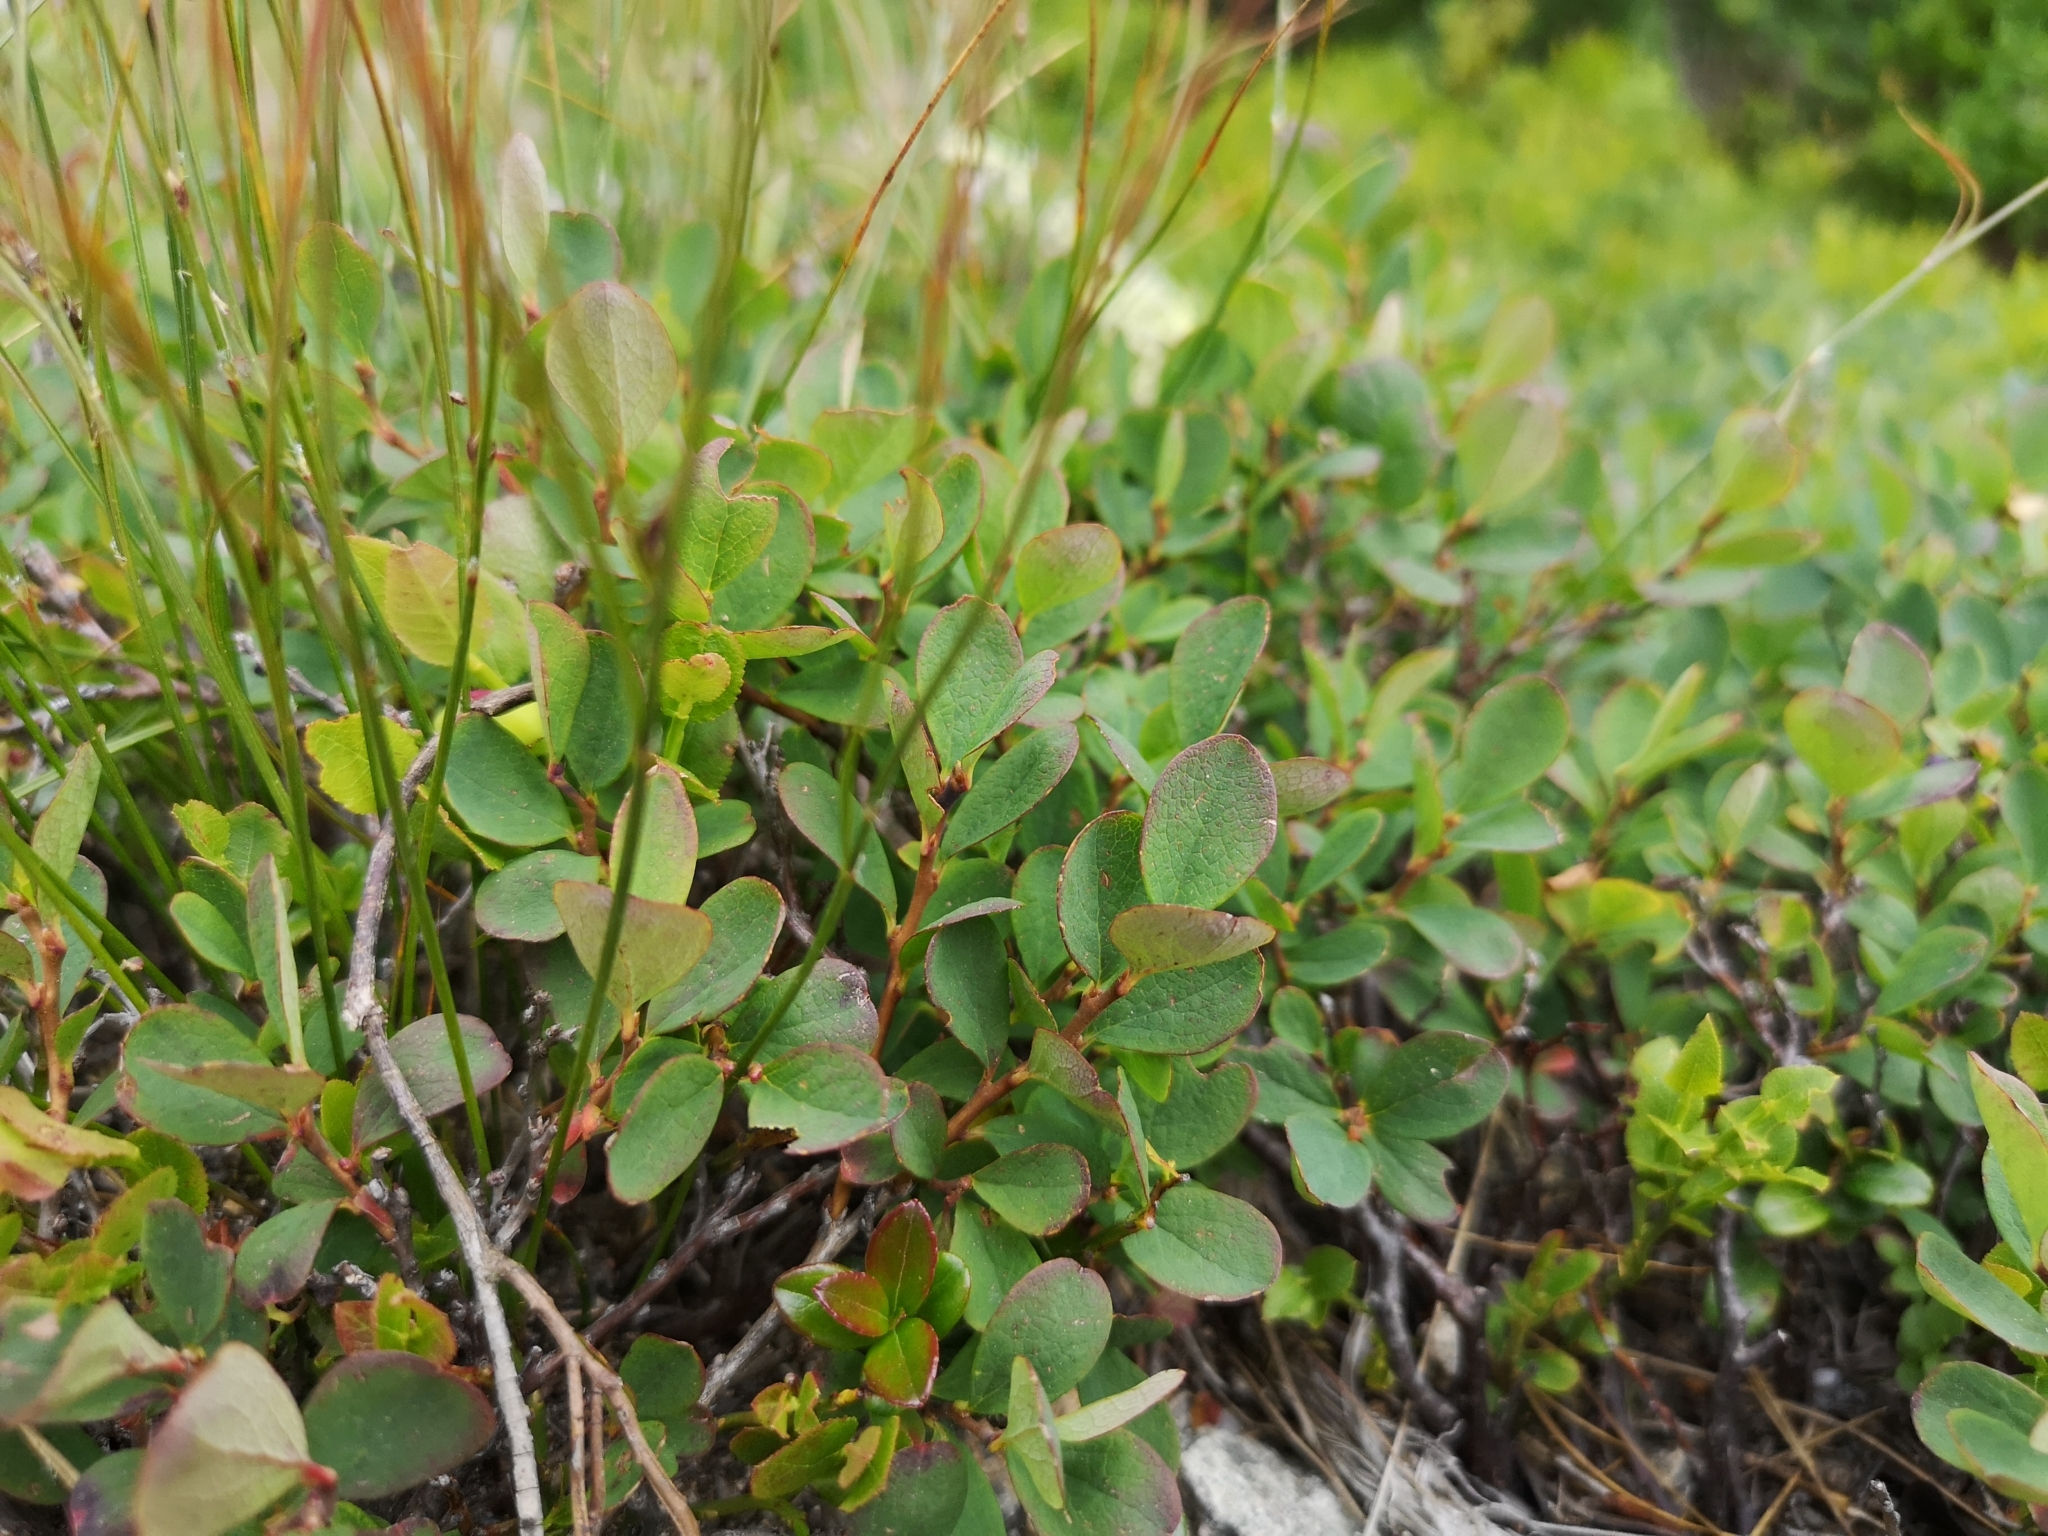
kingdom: Plantae
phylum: Tracheophyta
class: Magnoliopsida
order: Ericales
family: Ericaceae
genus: Vaccinium
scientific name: Vaccinium uliginosum
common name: Bog bilberry
